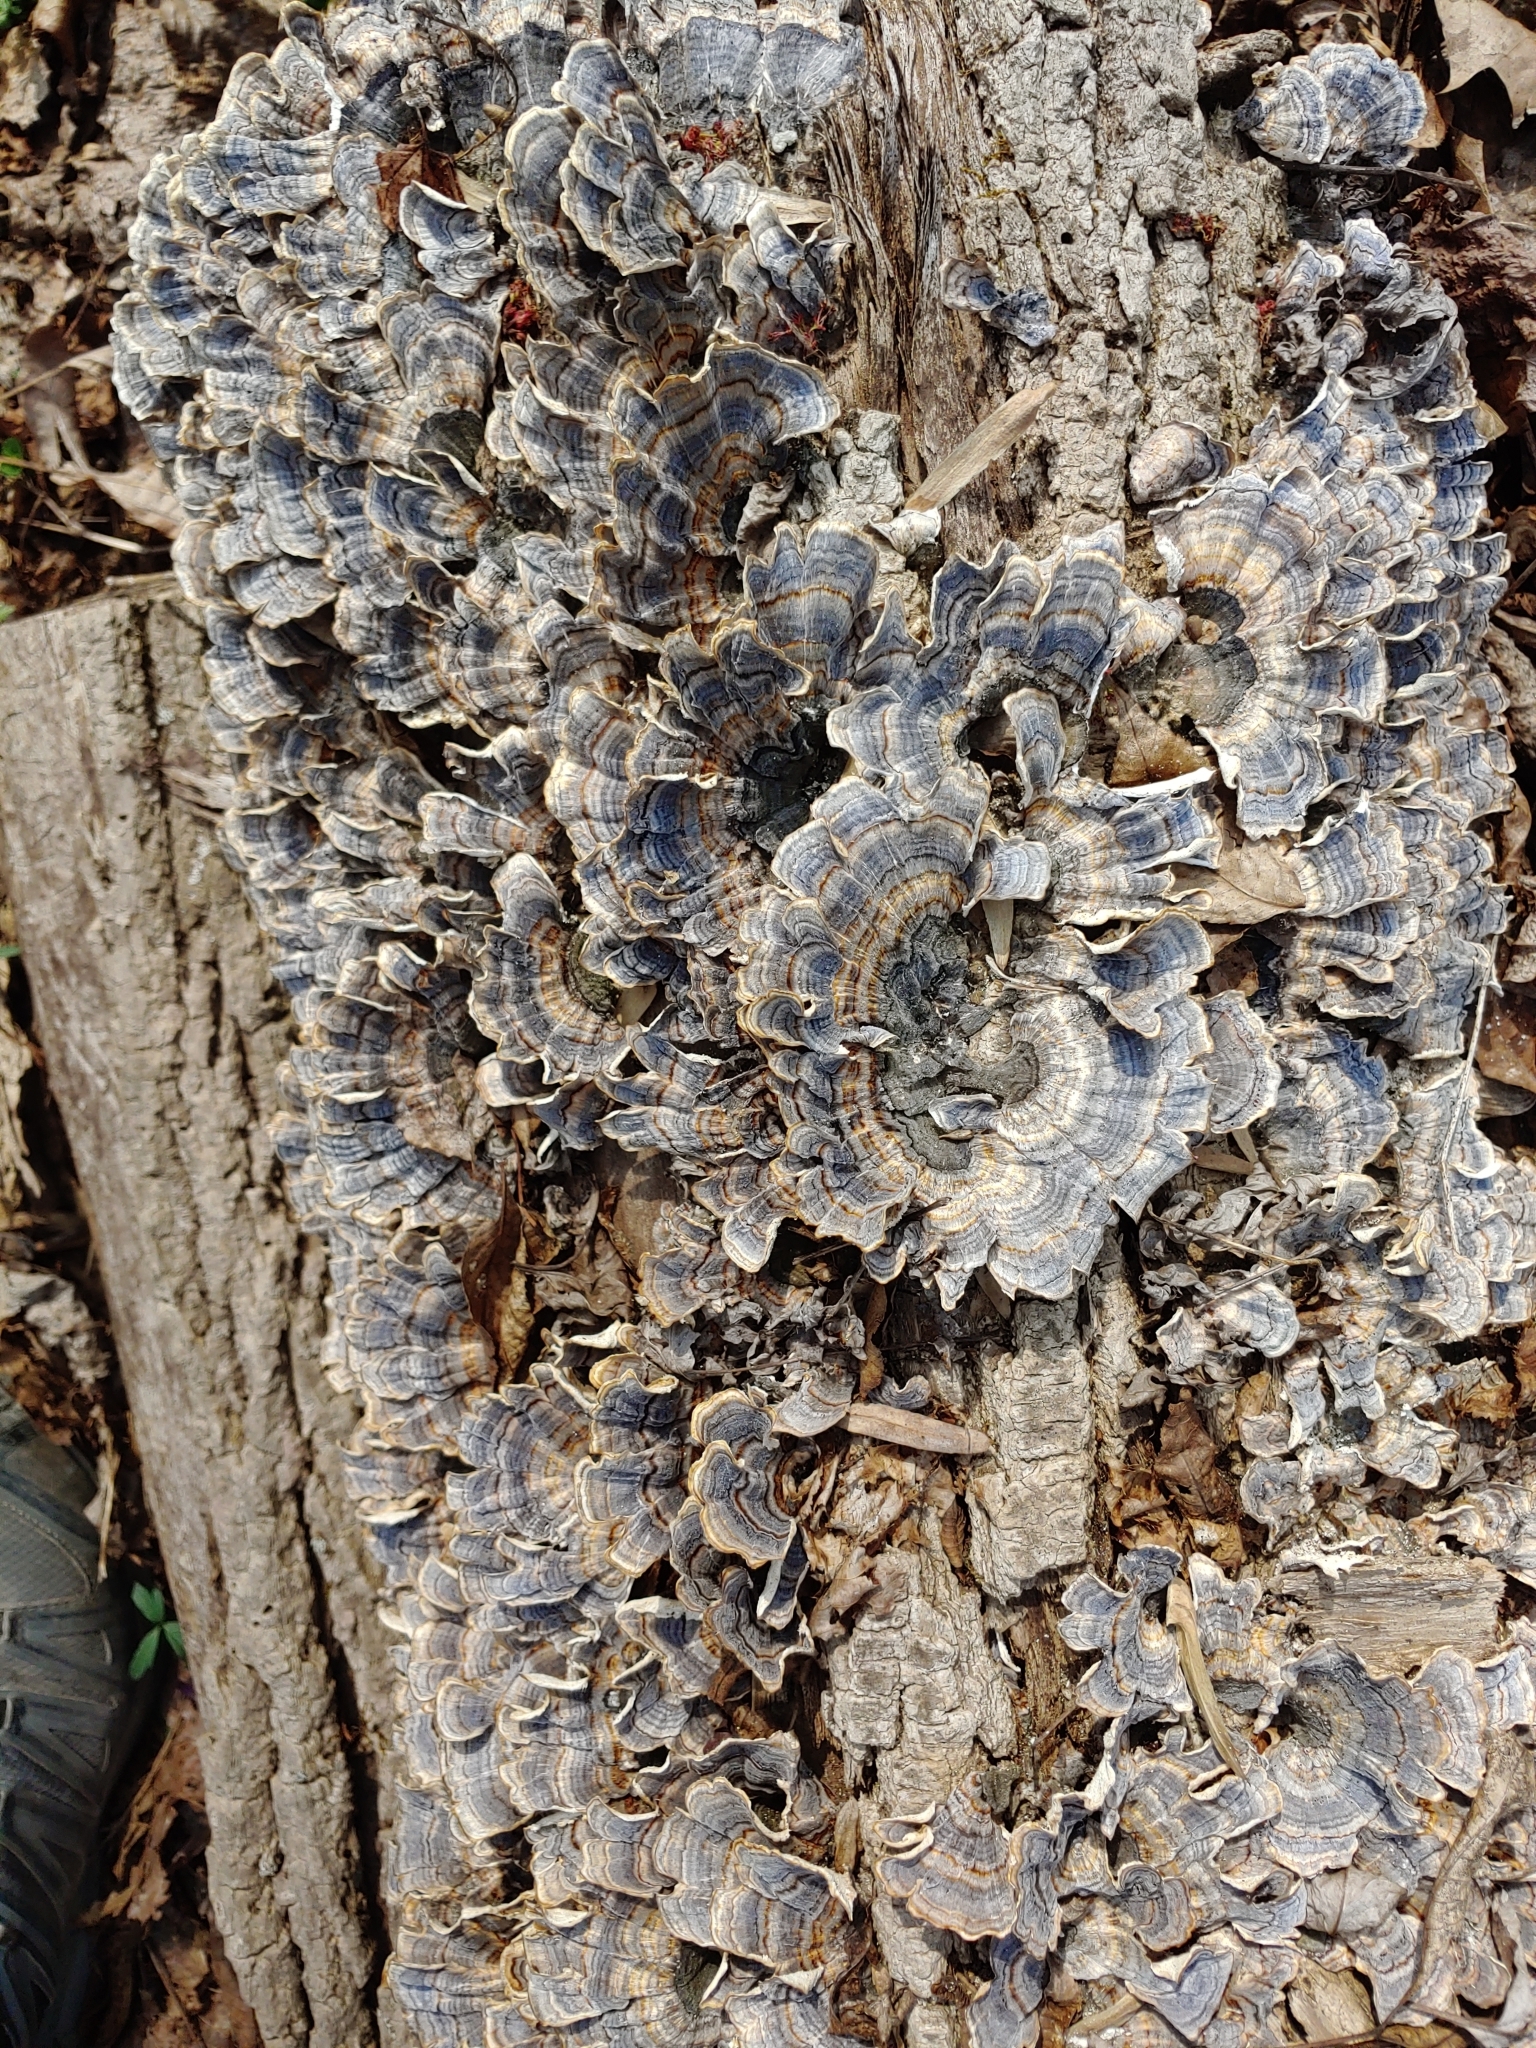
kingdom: Fungi
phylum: Basidiomycota
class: Agaricomycetes
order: Polyporales
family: Polyporaceae
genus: Trametes
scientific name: Trametes versicolor
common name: Turkeytail
